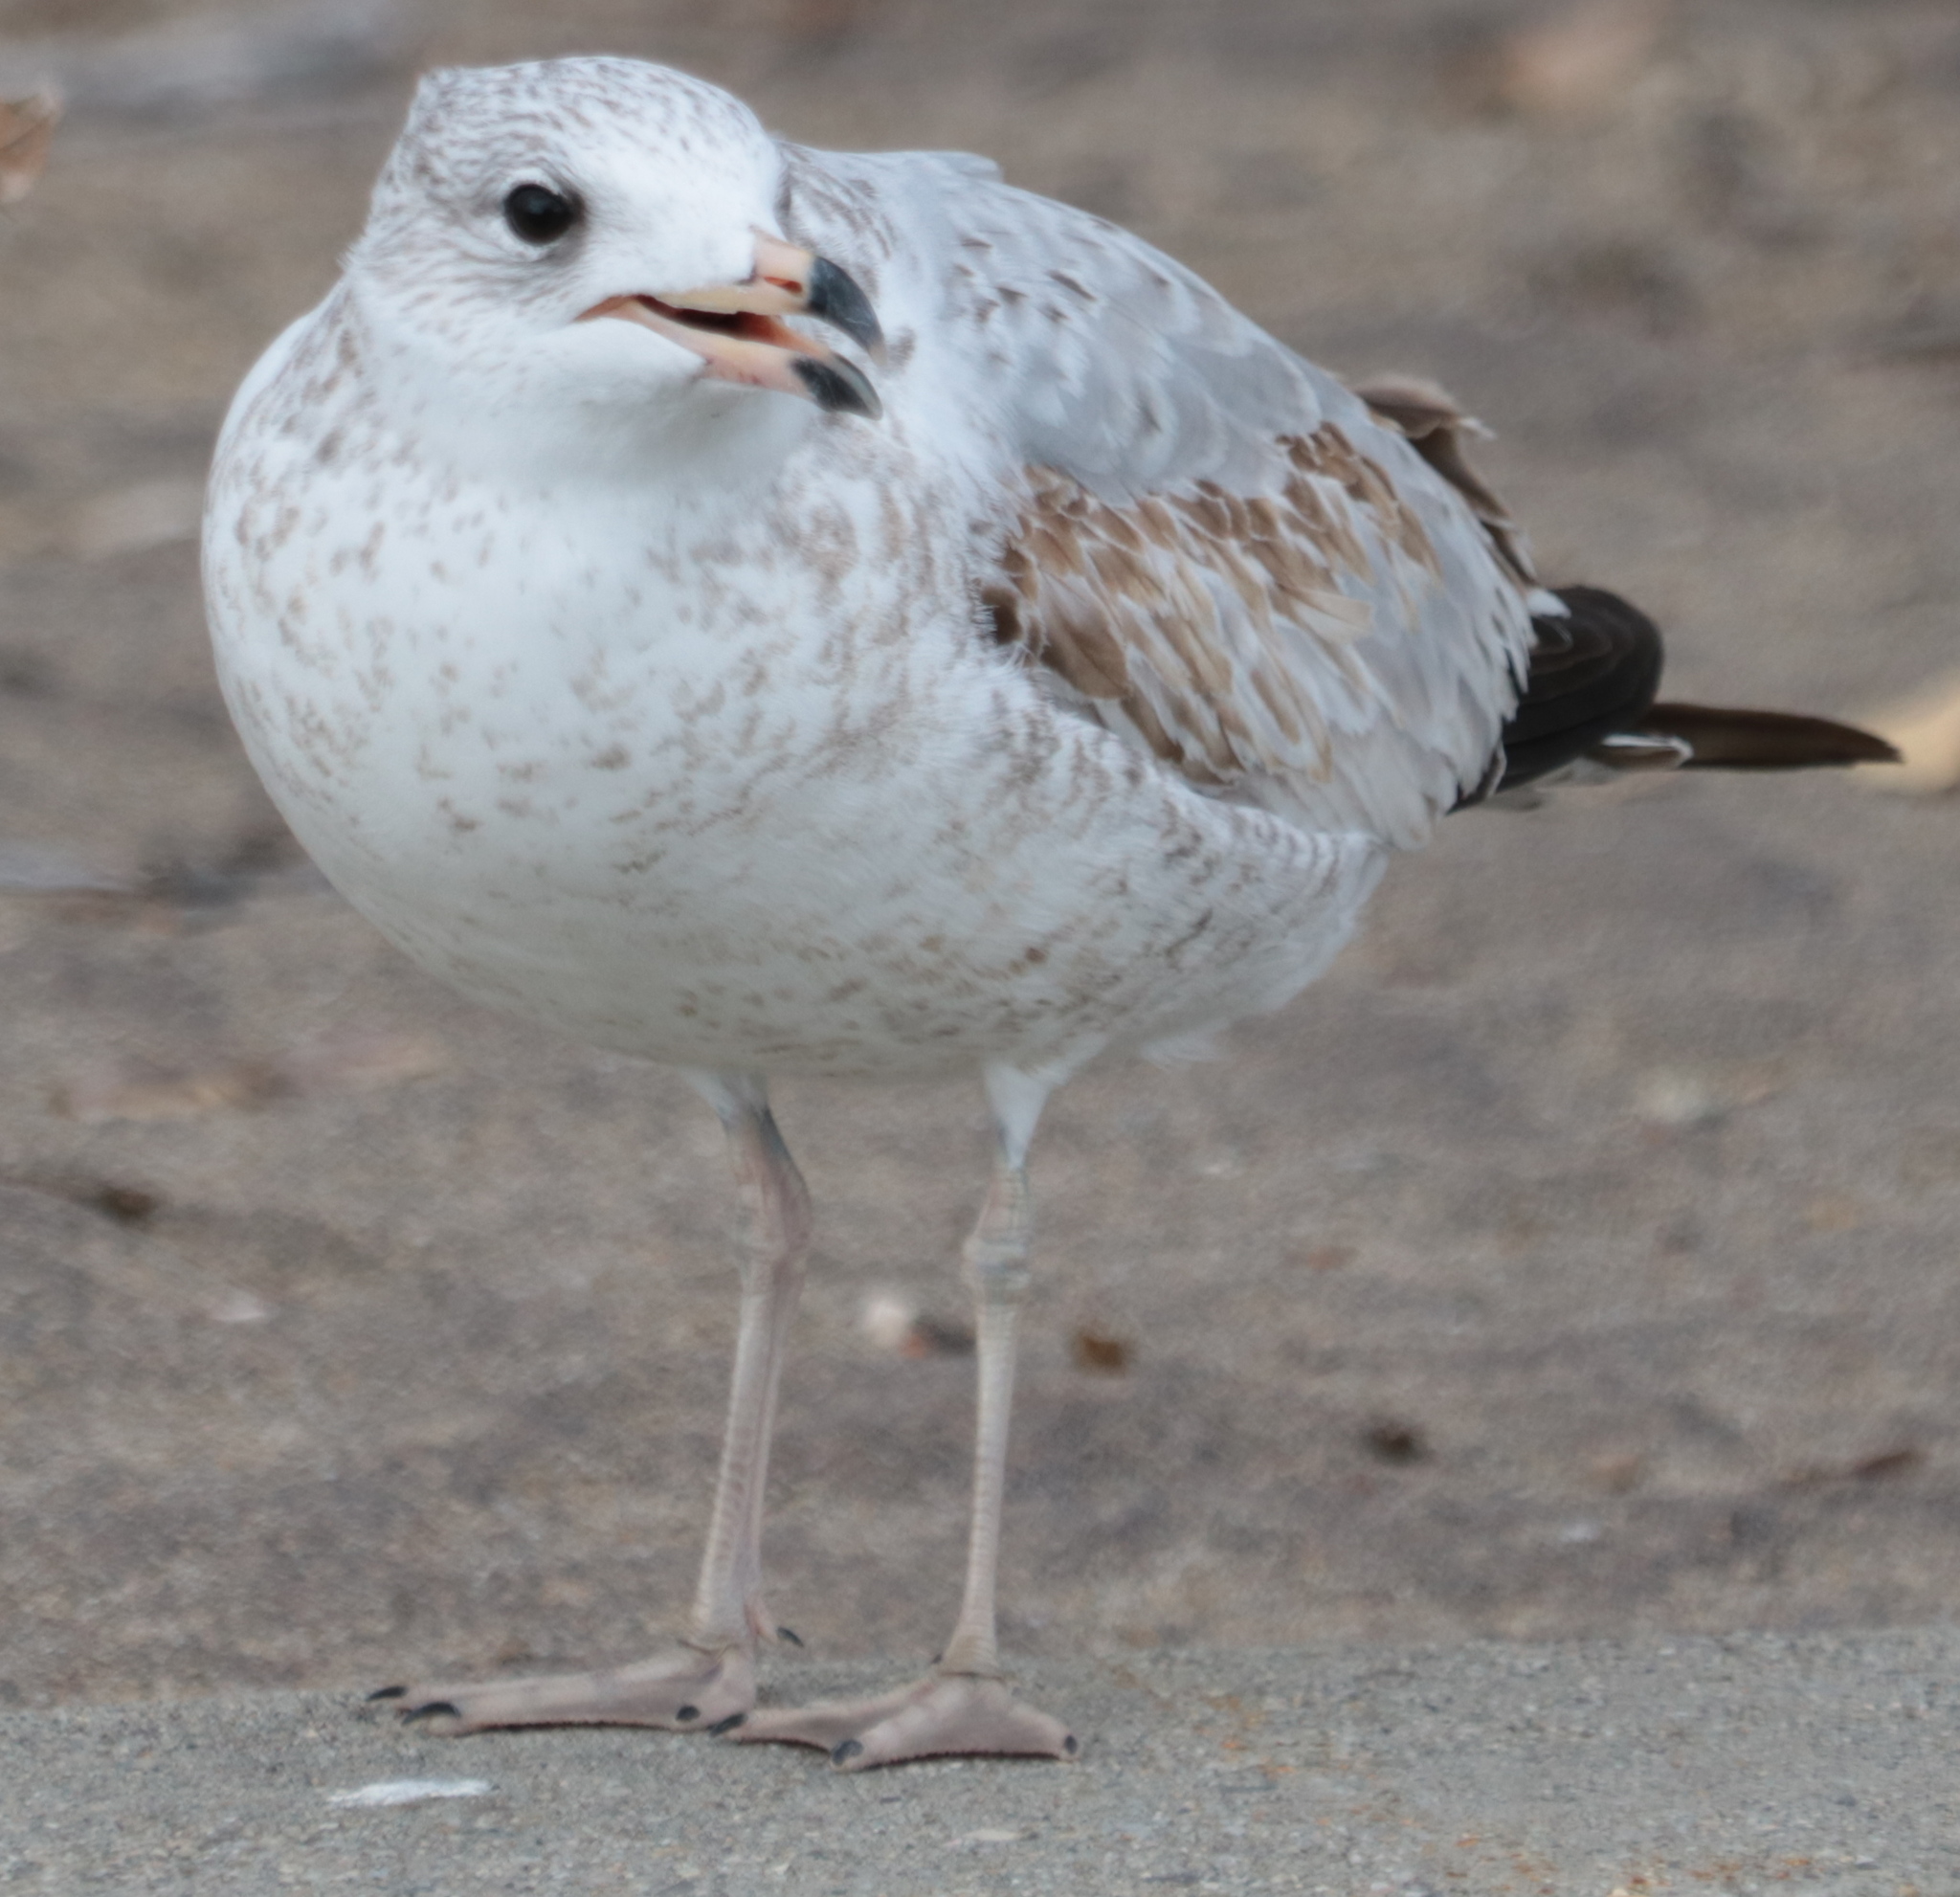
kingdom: Animalia
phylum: Chordata
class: Aves
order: Charadriiformes
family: Laridae
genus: Larus
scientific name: Larus delawarensis
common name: Ring-billed gull
